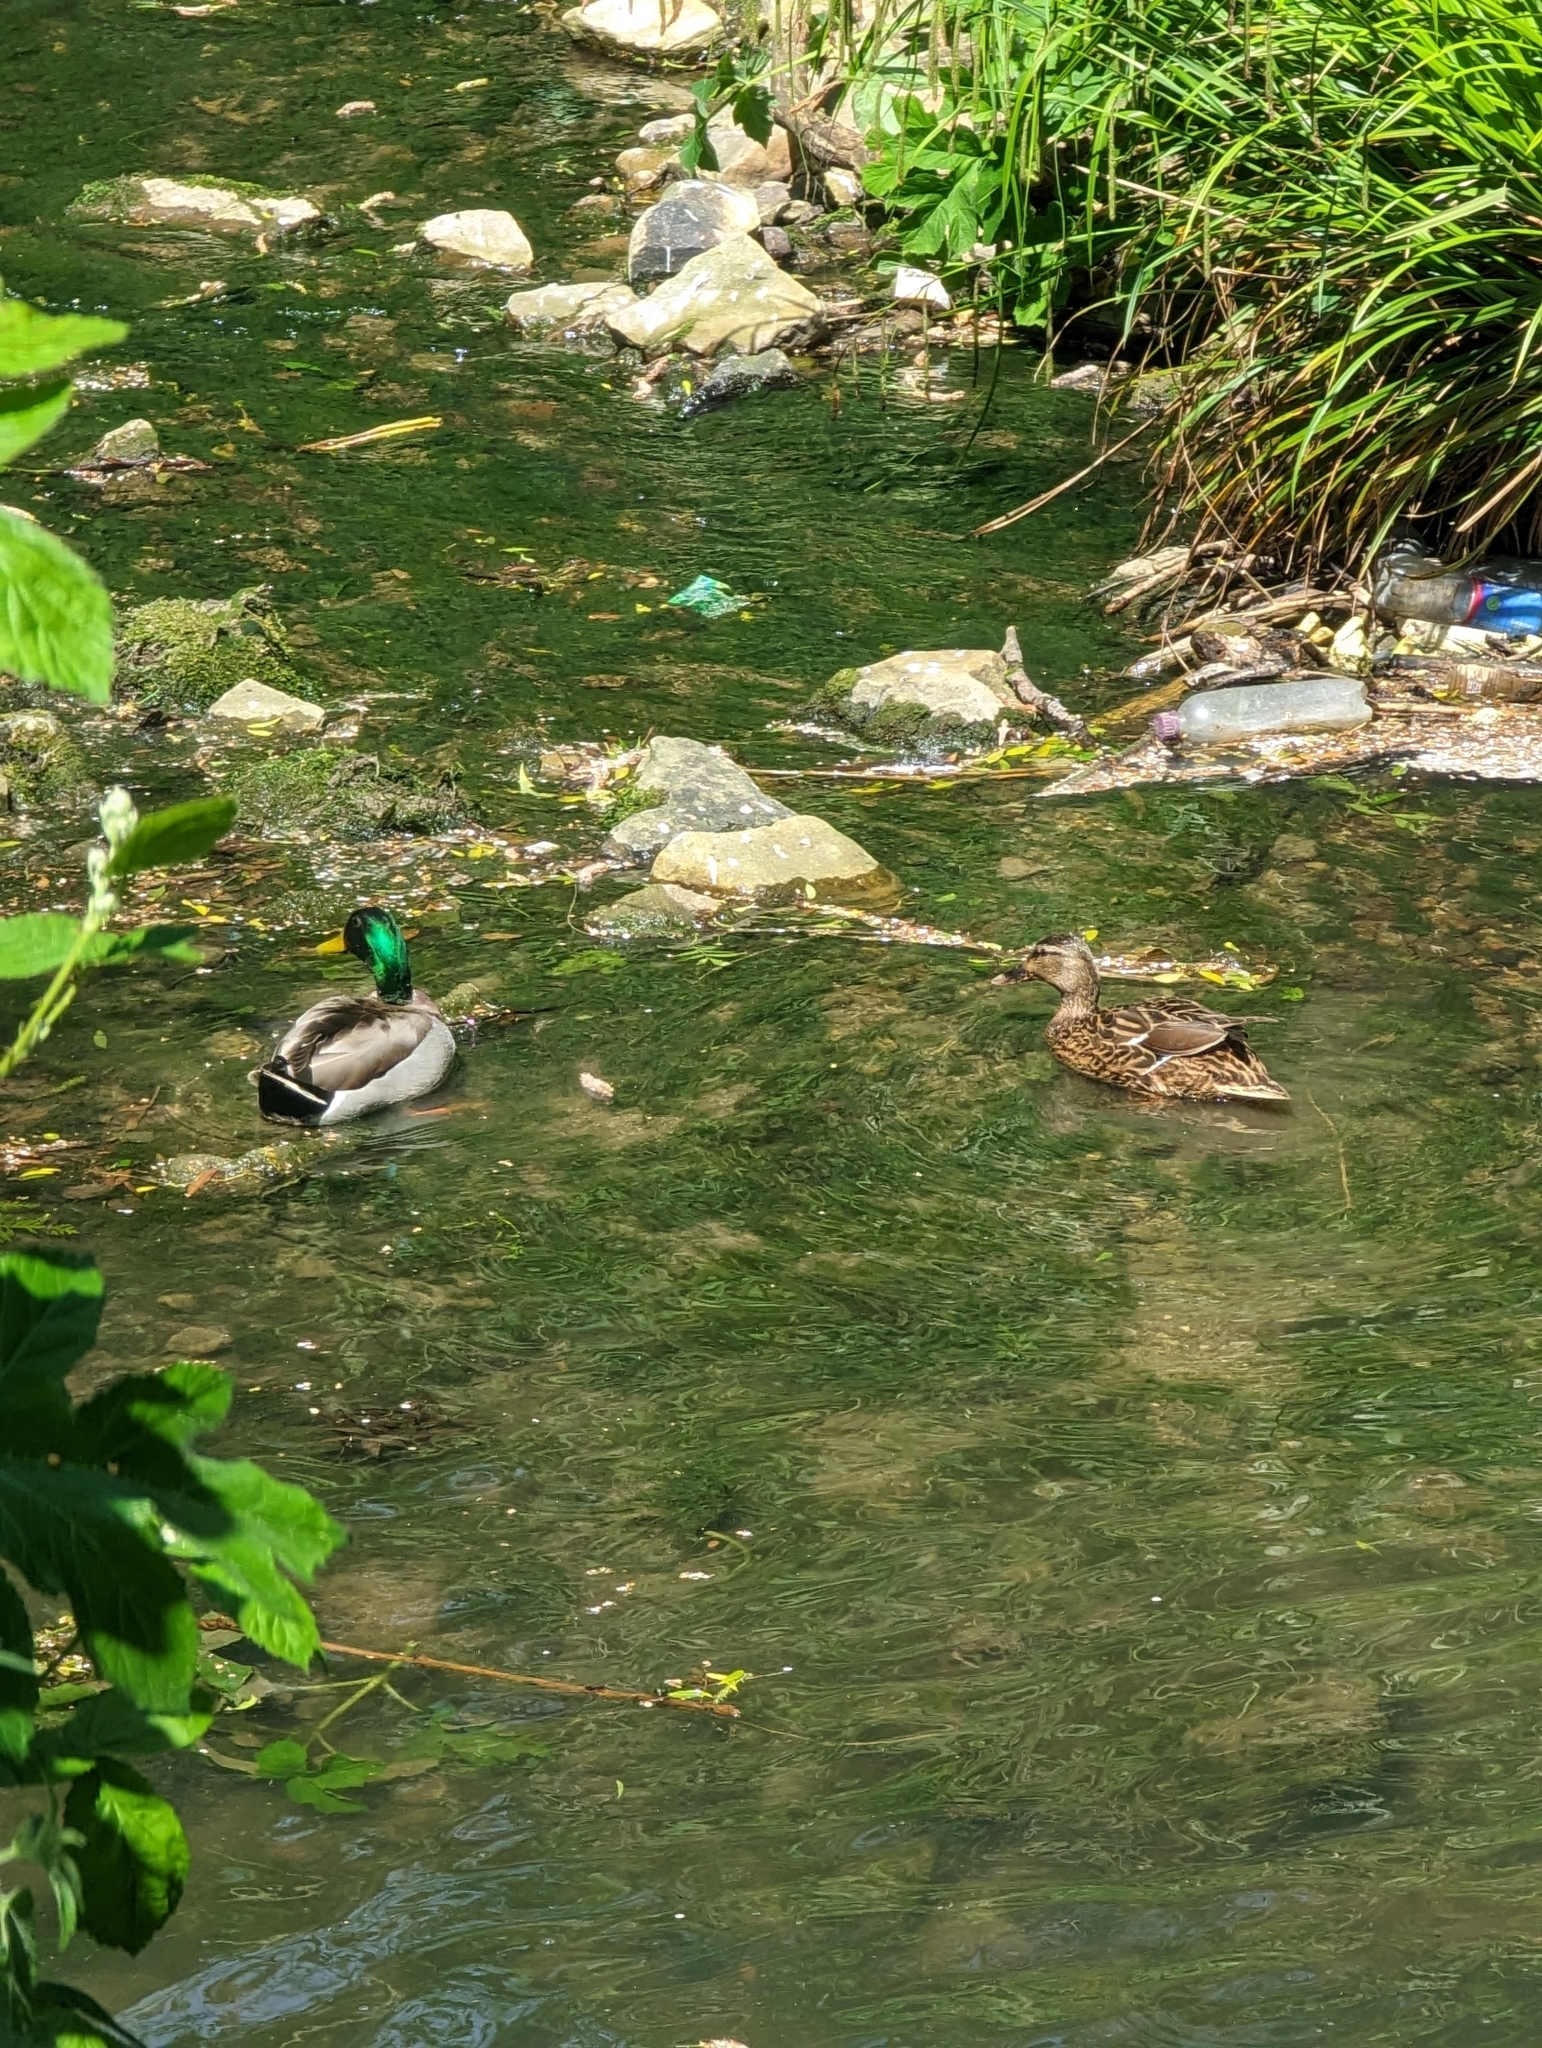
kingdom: Animalia
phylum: Chordata
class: Aves
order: Anseriformes
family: Anatidae
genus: Anas
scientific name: Anas platyrhynchos
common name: Mallard
